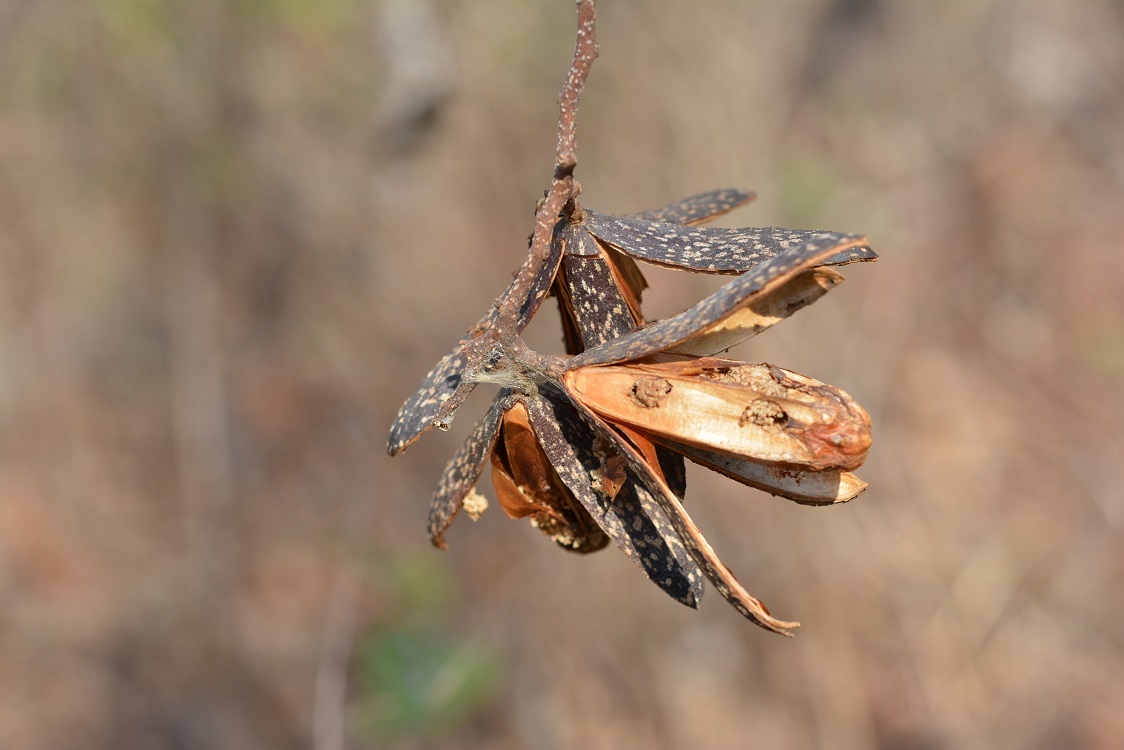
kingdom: Plantae
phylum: Tracheophyta
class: Magnoliopsida
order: Sapindales
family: Meliaceae
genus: Cedrela
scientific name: Cedrela oaxacensis
